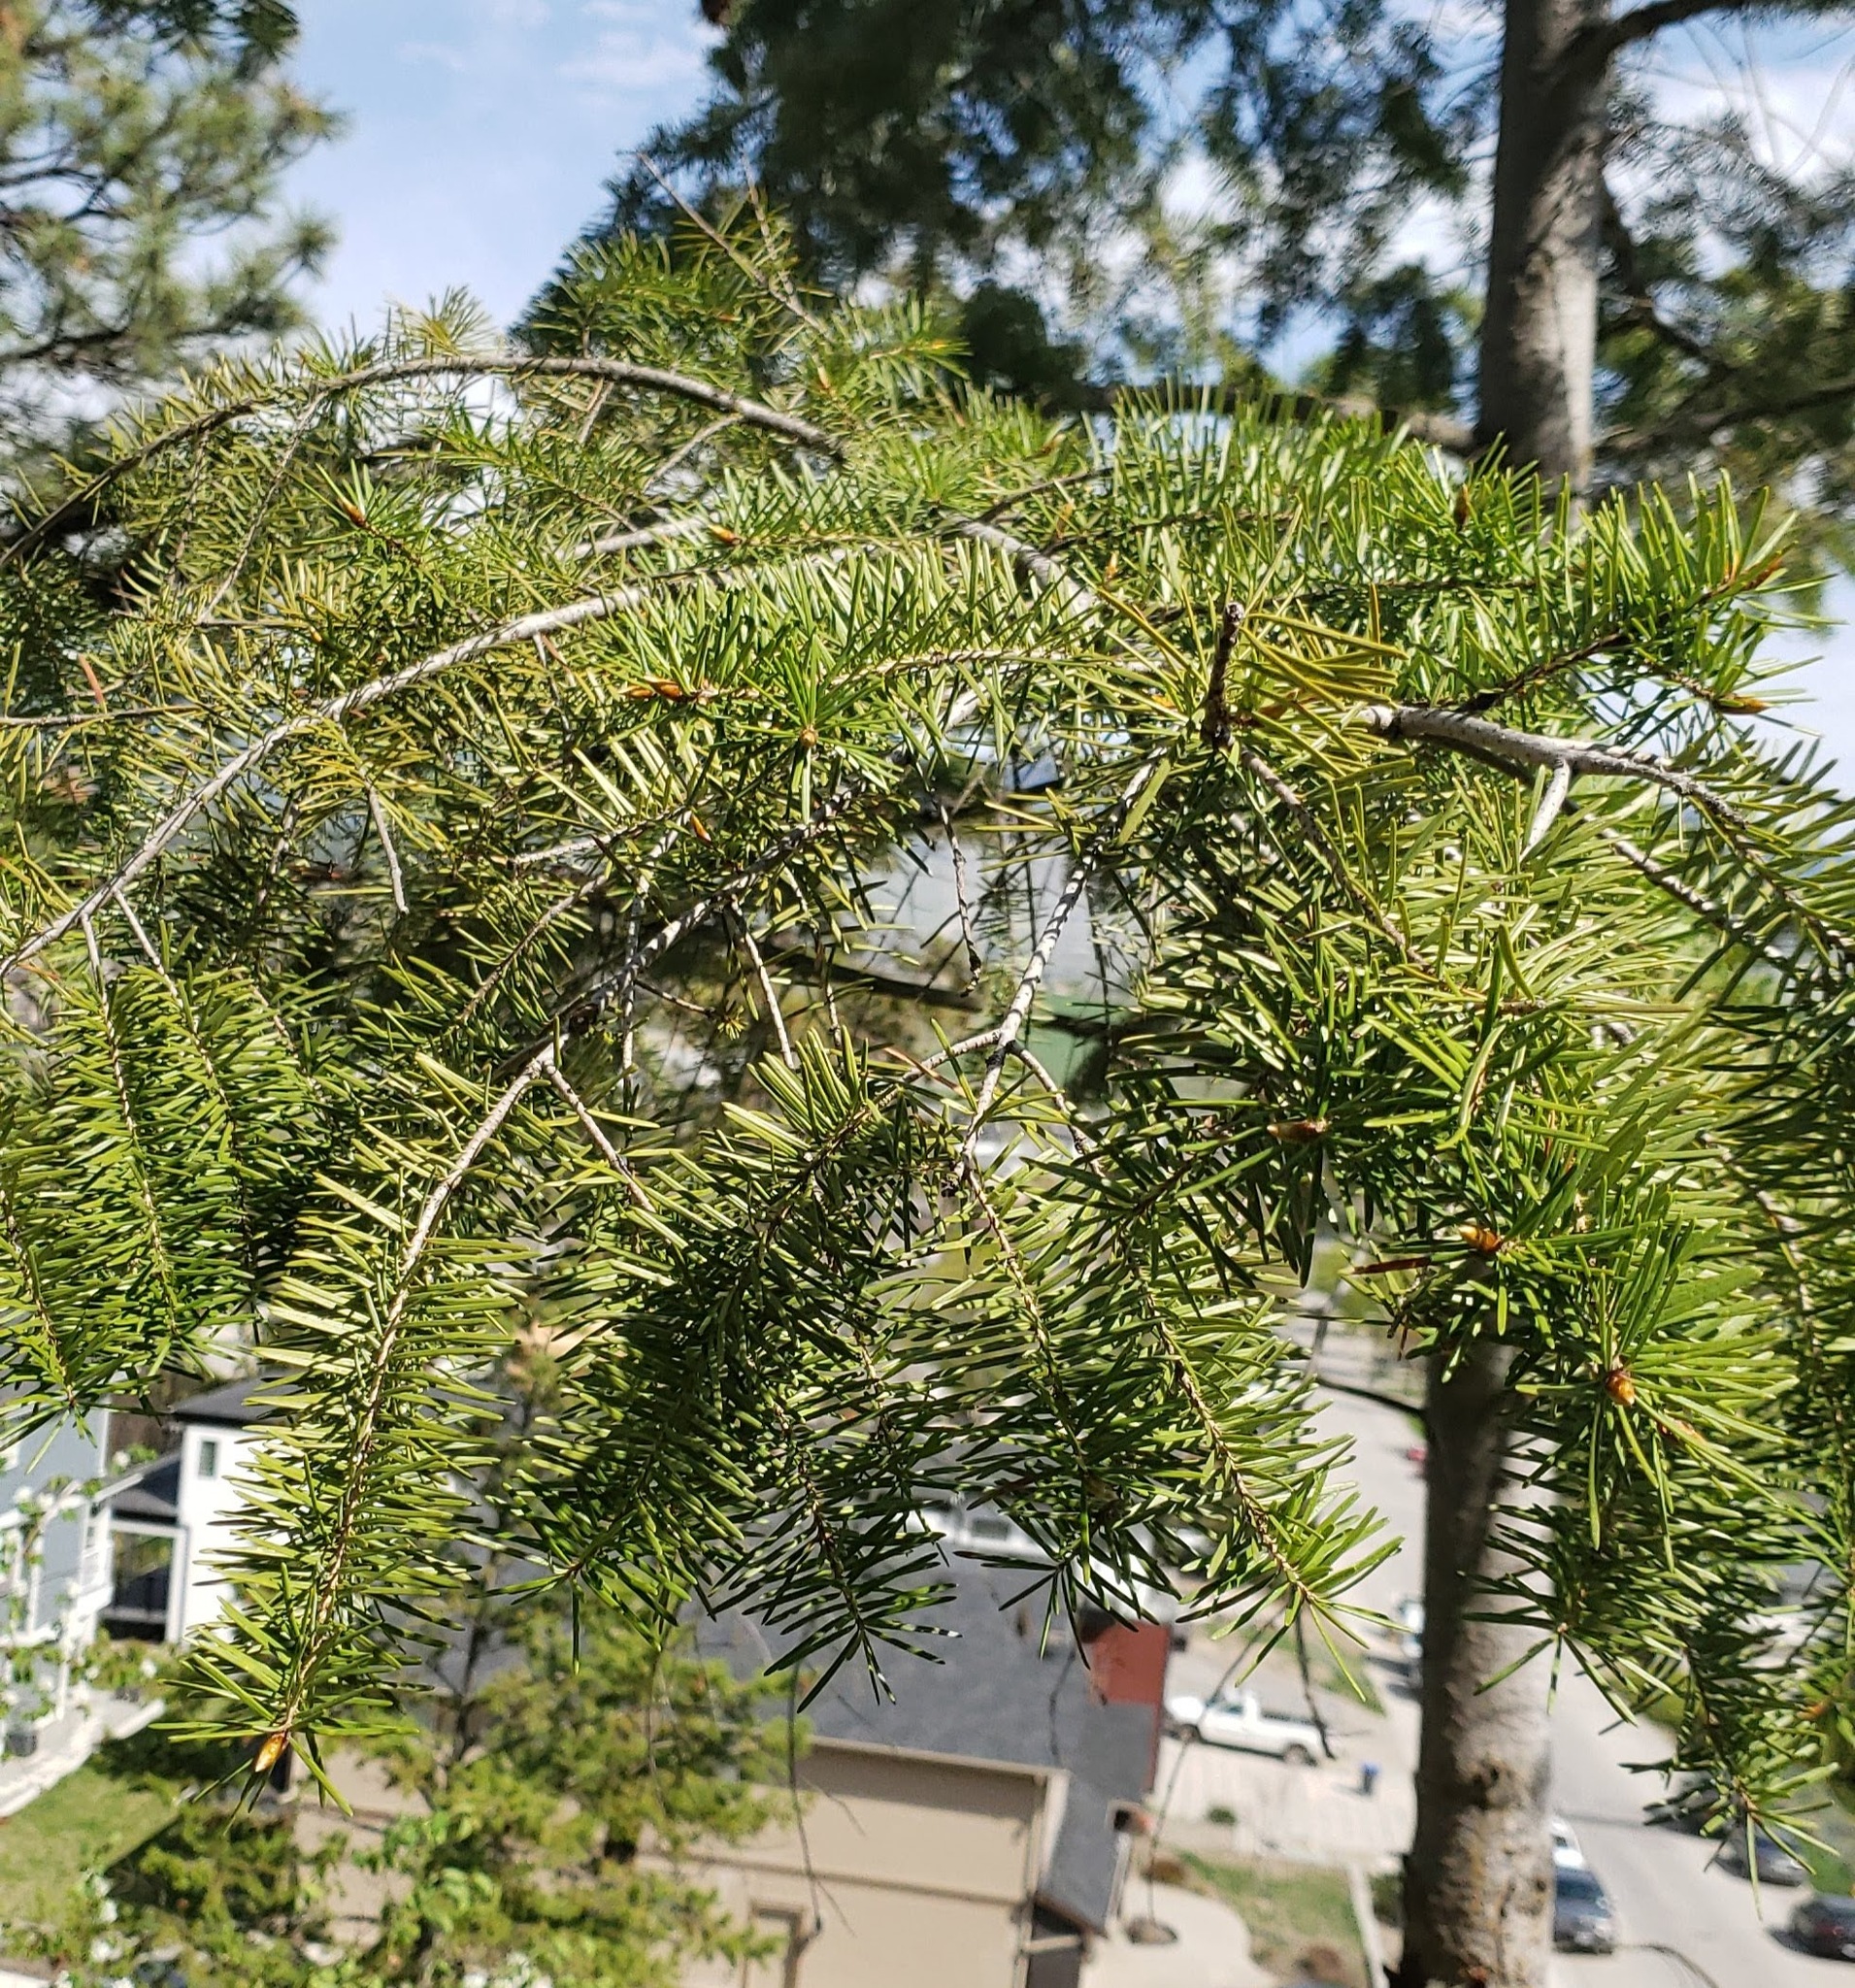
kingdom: Plantae
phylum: Tracheophyta
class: Pinopsida
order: Pinales
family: Pinaceae
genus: Pseudotsuga
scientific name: Pseudotsuga menziesii
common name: Douglas fir
